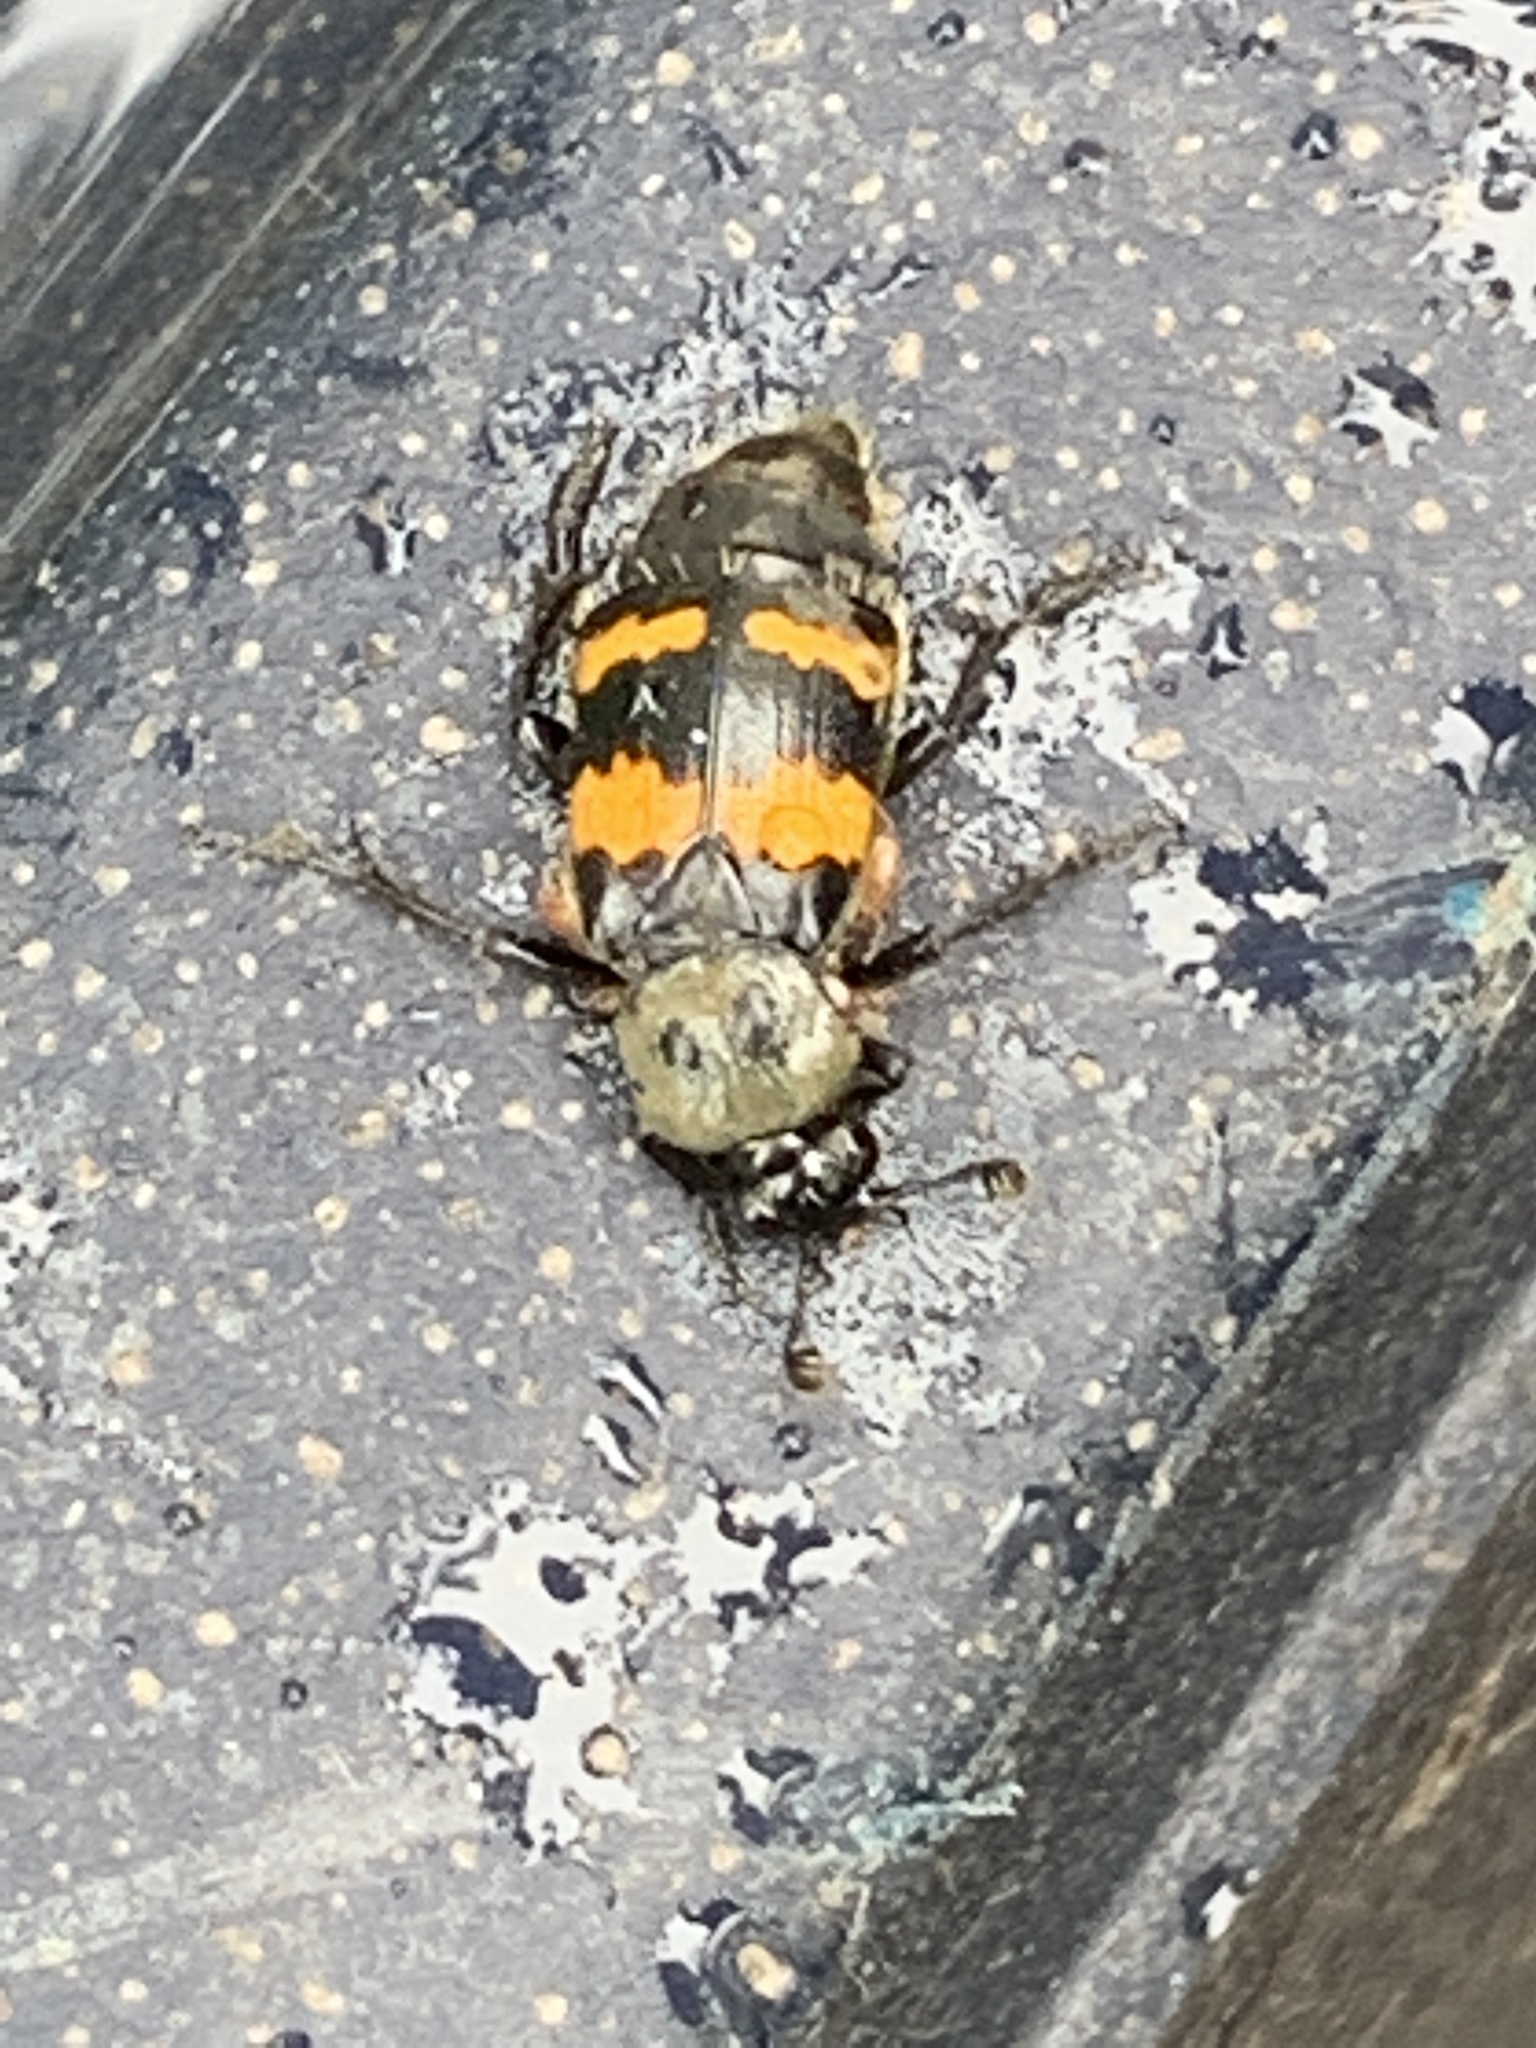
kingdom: Animalia
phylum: Arthropoda
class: Insecta
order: Coleoptera
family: Staphylinidae
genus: Nicrophorus
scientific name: Nicrophorus tomentosus
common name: Tomentose burying beetle
